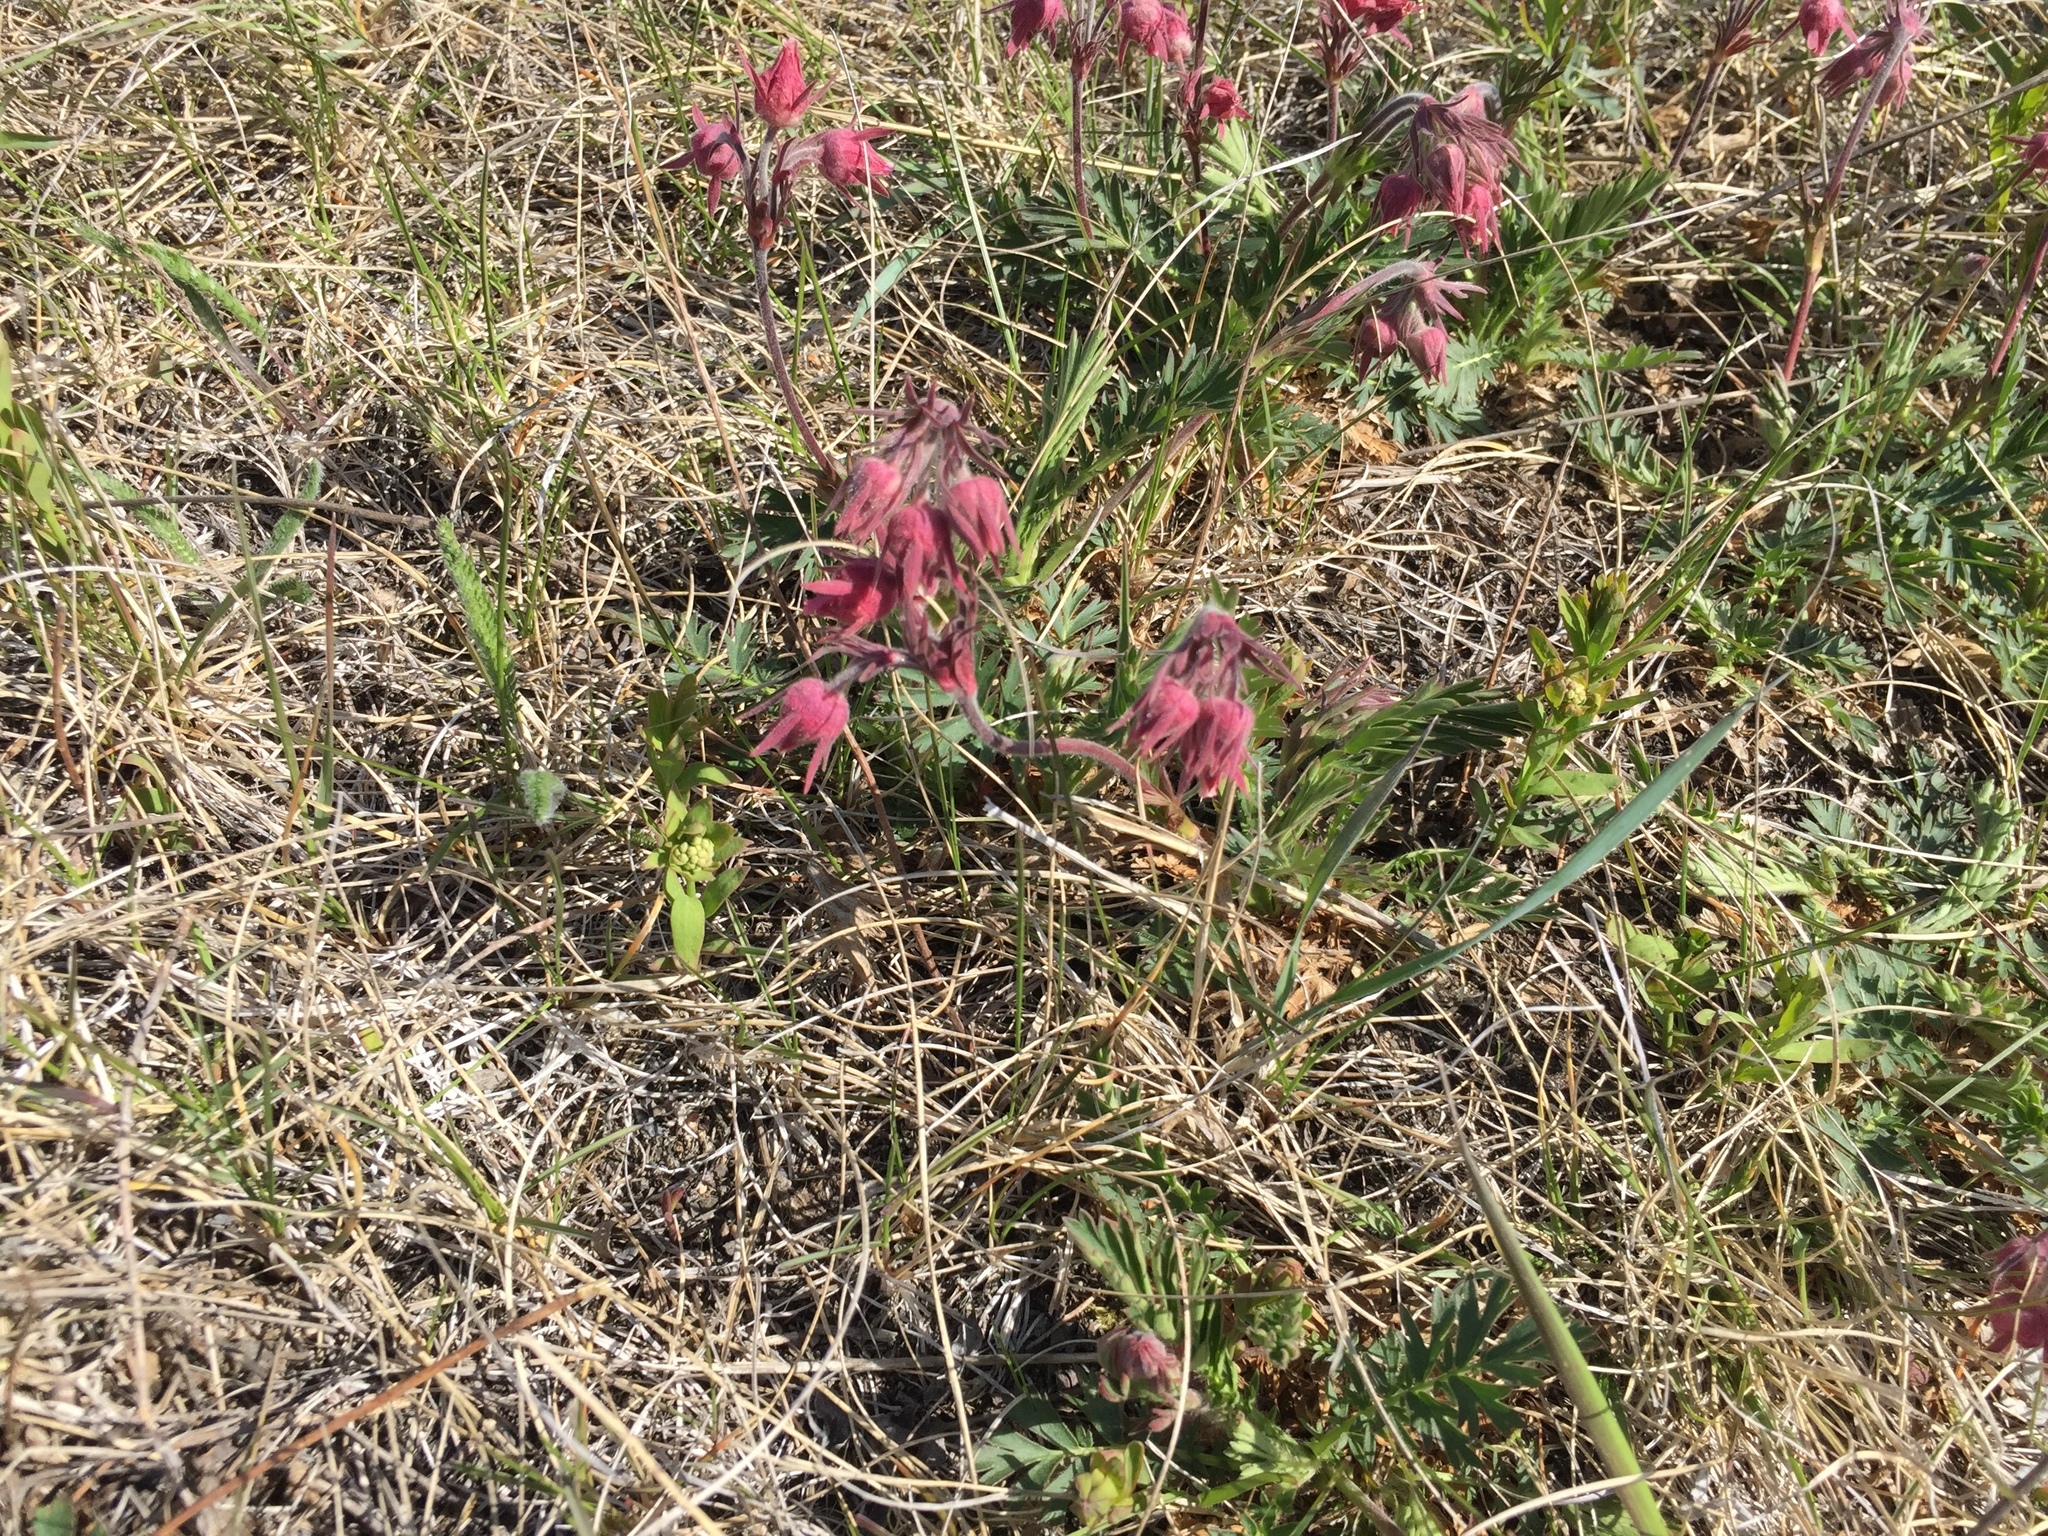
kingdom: Plantae
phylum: Tracheophyta
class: Magnoliopsida
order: Rosales
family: Rosaceae
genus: Geum
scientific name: Geum triflorum
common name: Old man's whiskers
